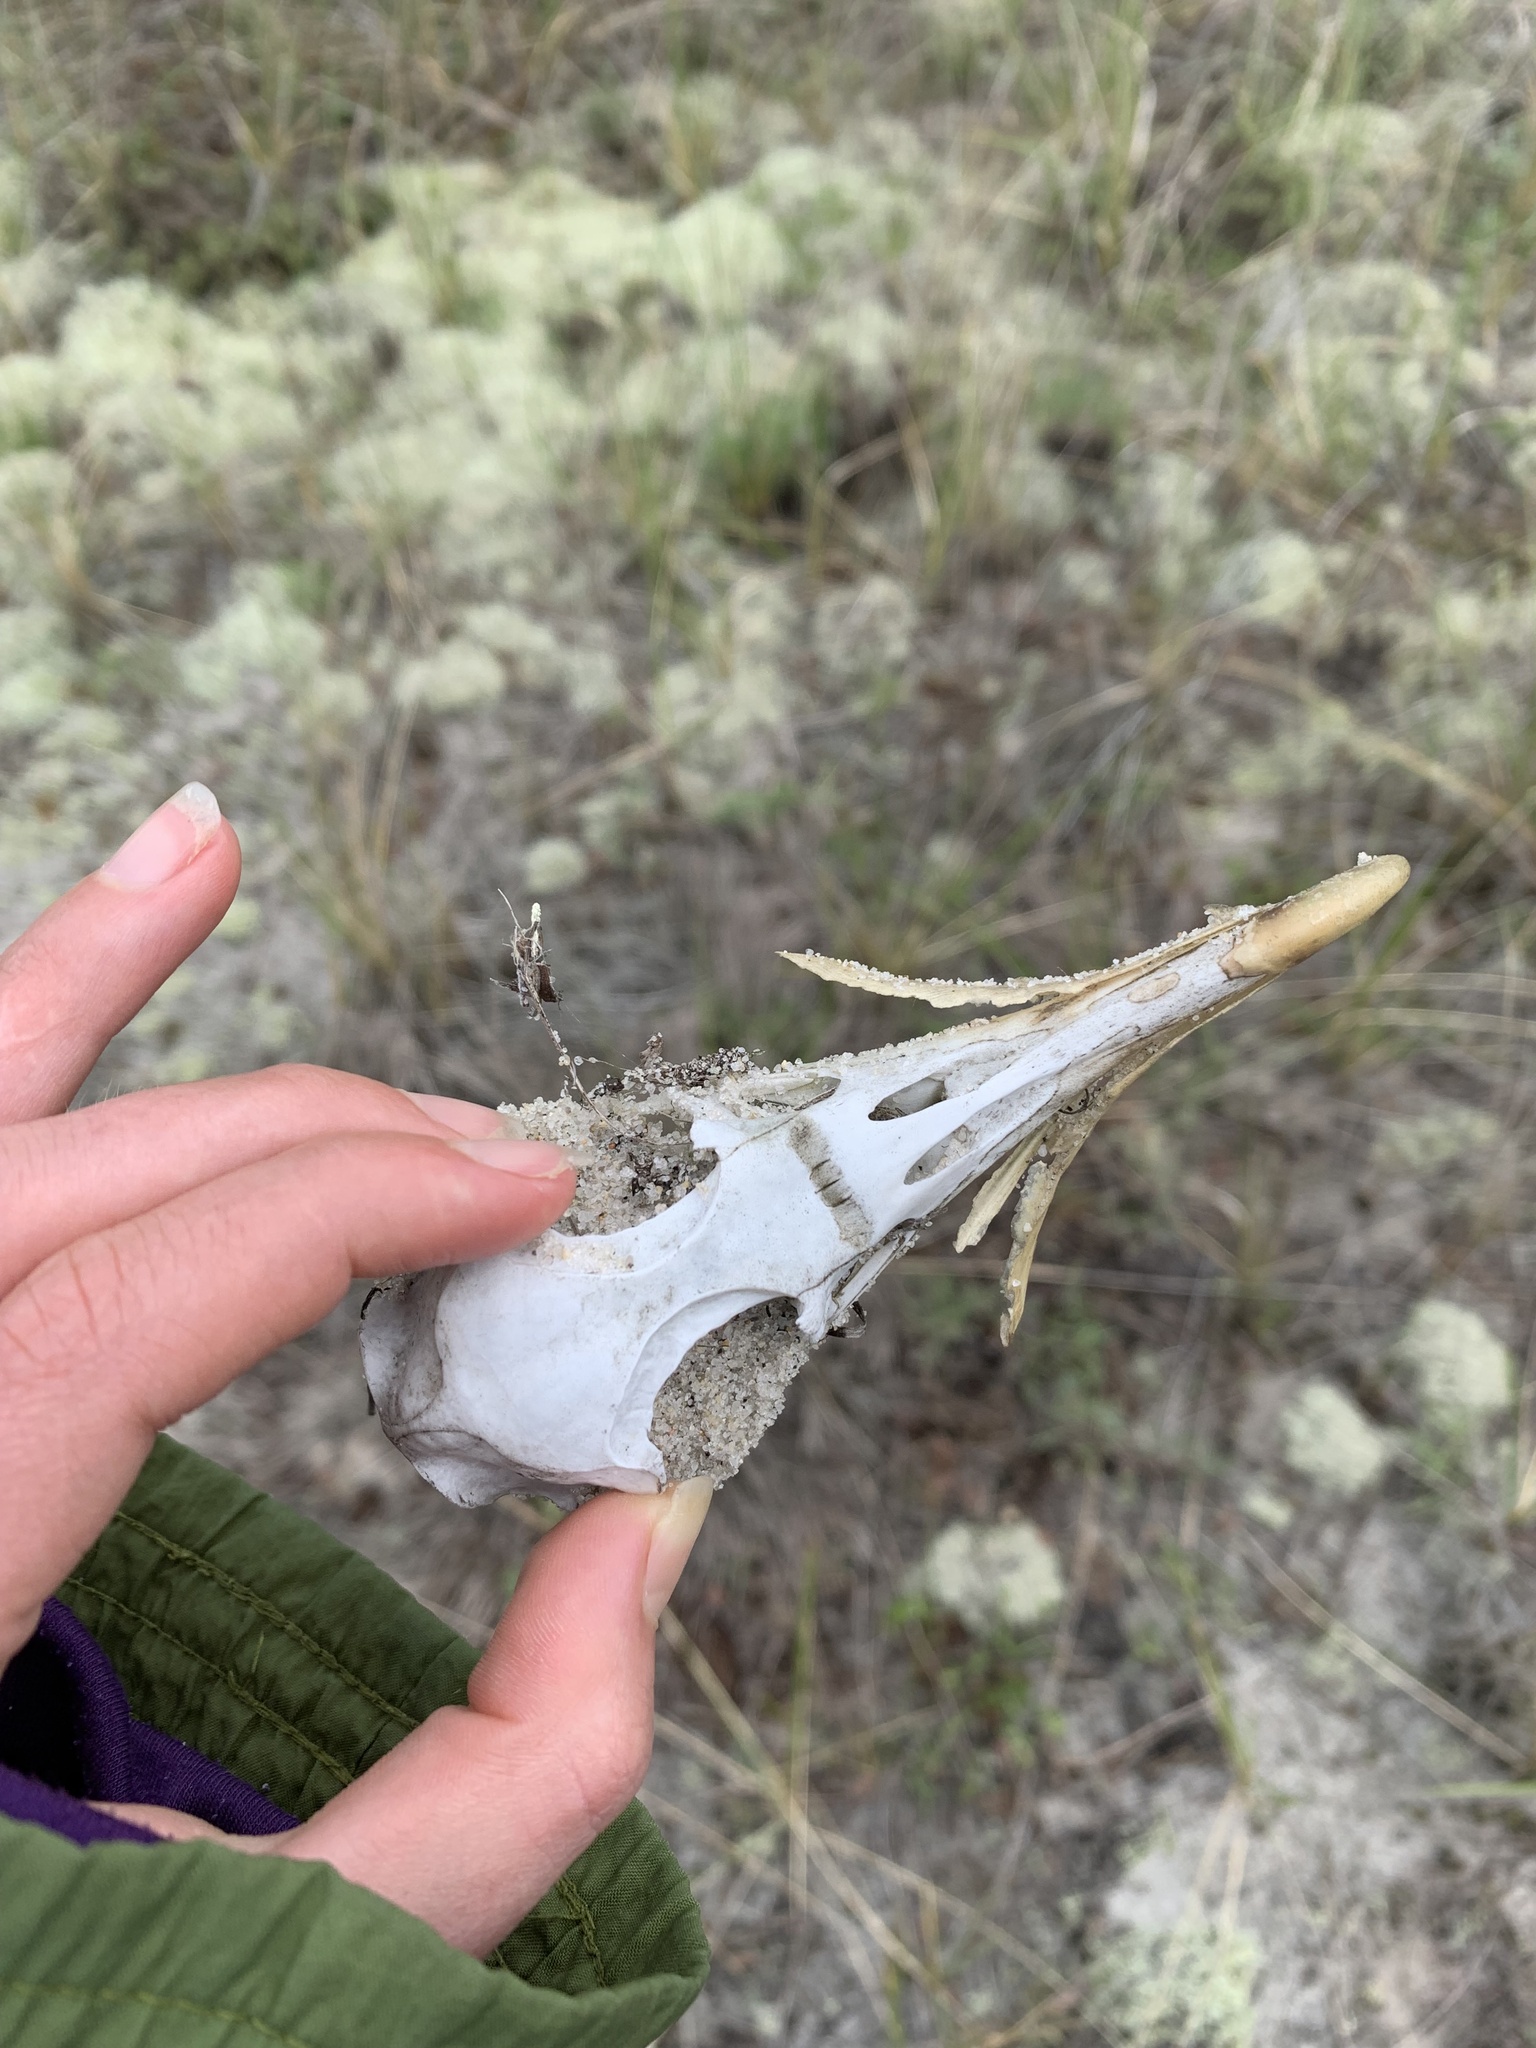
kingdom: Animalia
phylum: Chordata
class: Aves
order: Procellariiformes
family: Procellariidae
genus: Calonectris
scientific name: Calonectris diomedea
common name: Cory's shearwater
